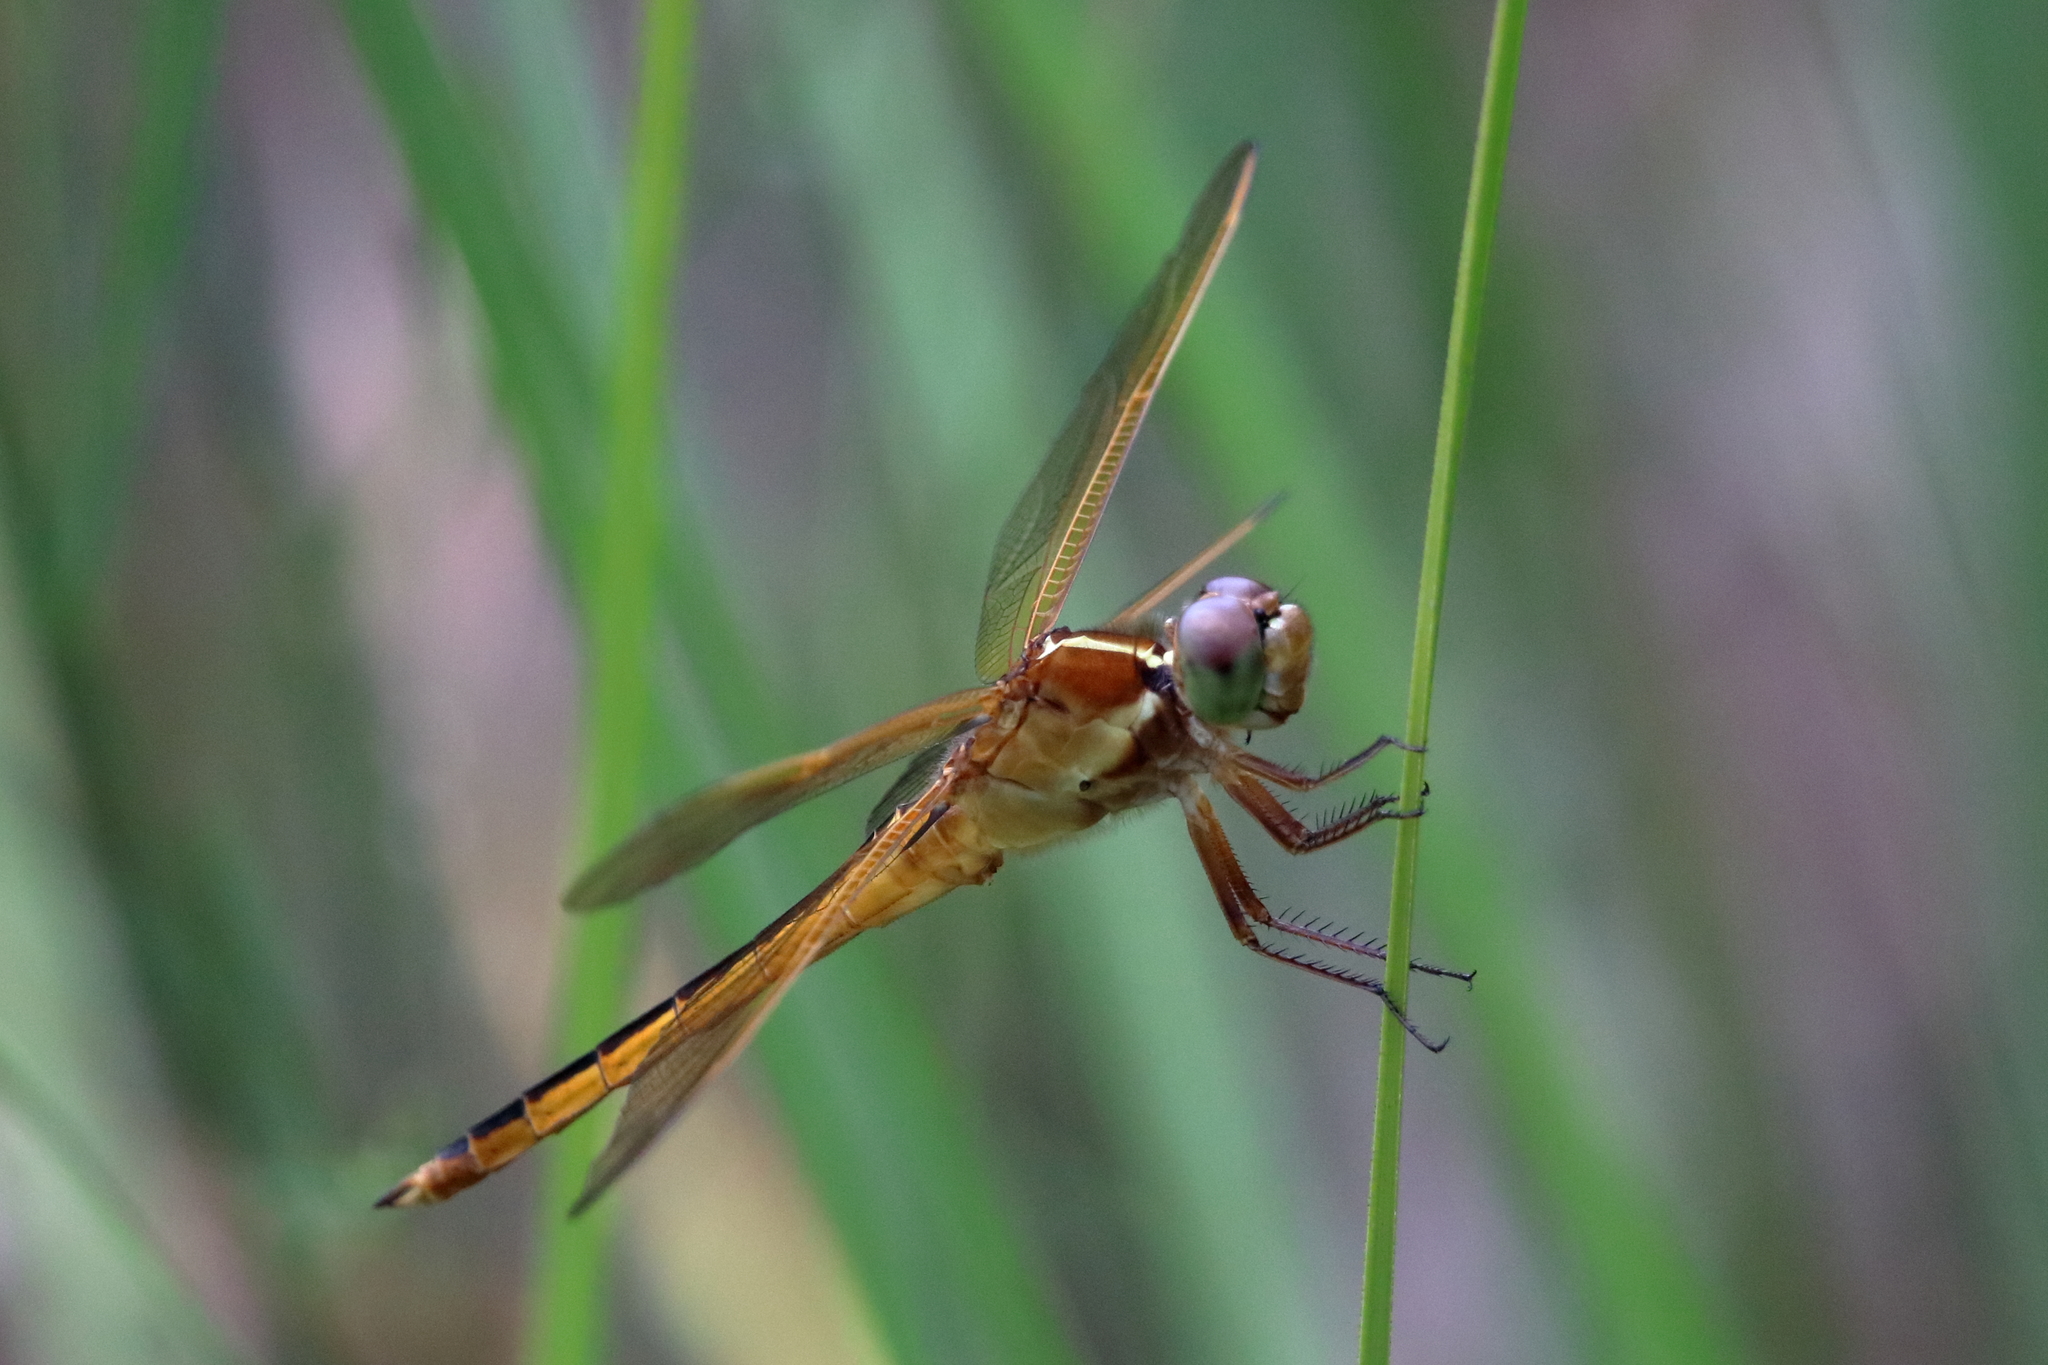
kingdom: Animalia
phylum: Arthropoda
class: Insecta
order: Odonata
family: Libellulidae
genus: Libellula
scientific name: Libellula needhami
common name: Needham's skimmer
